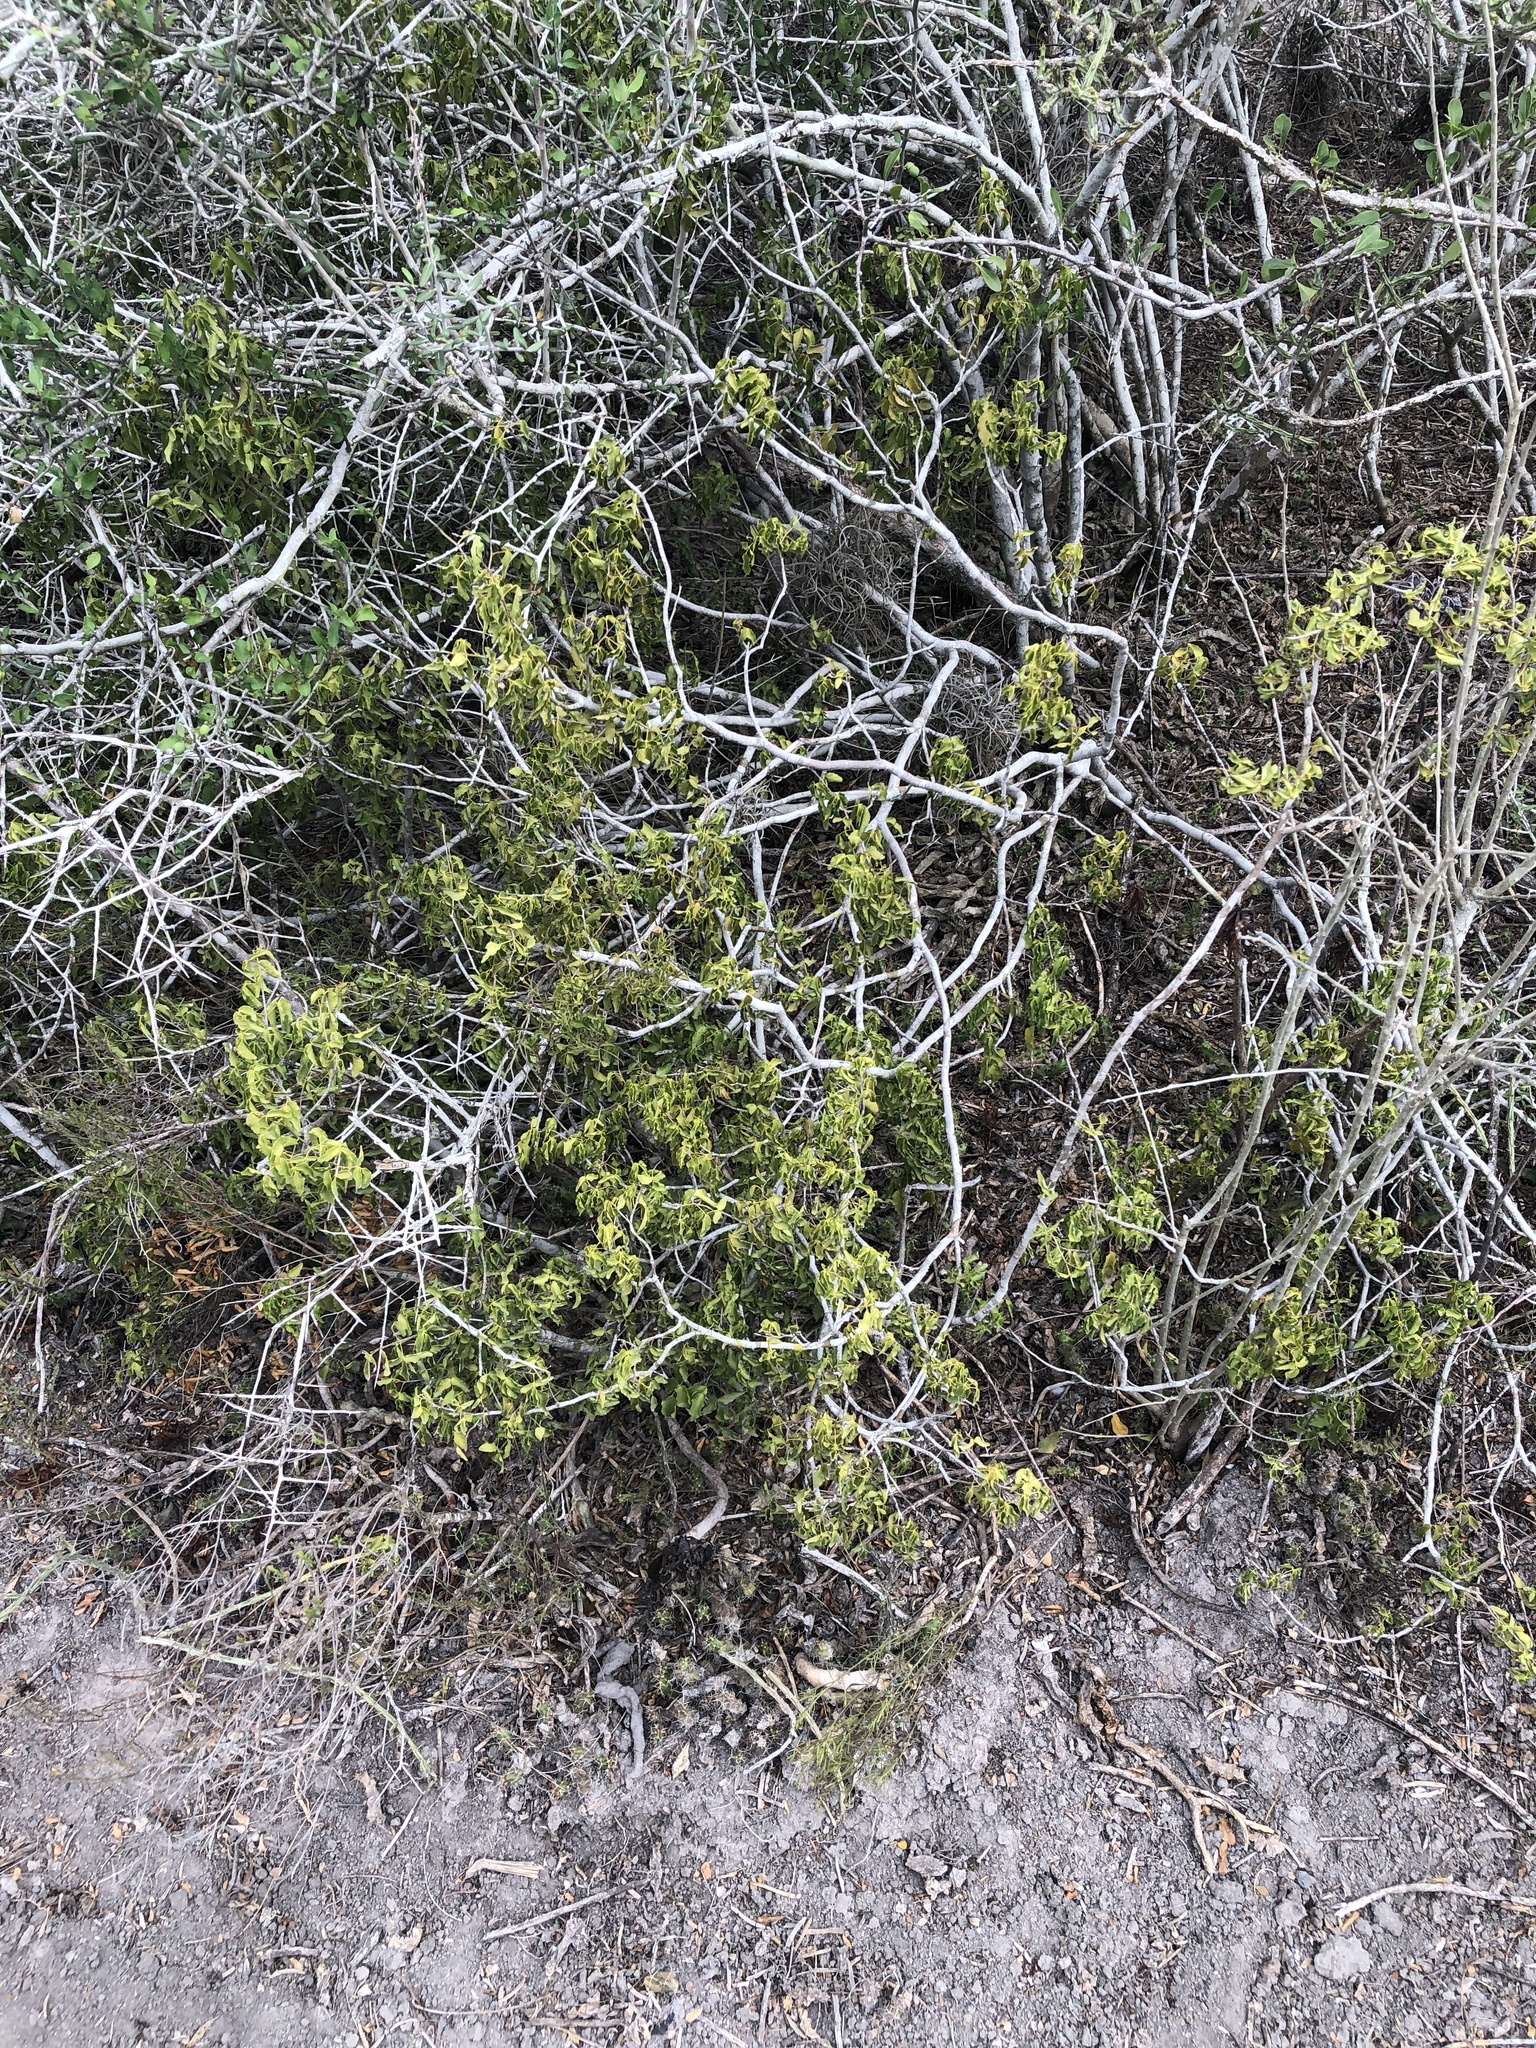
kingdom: Plantae
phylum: Tracheophyta
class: Magnoliopsida
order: Sapindales
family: Rutaceae
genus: Amyris
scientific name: Amyris texana
